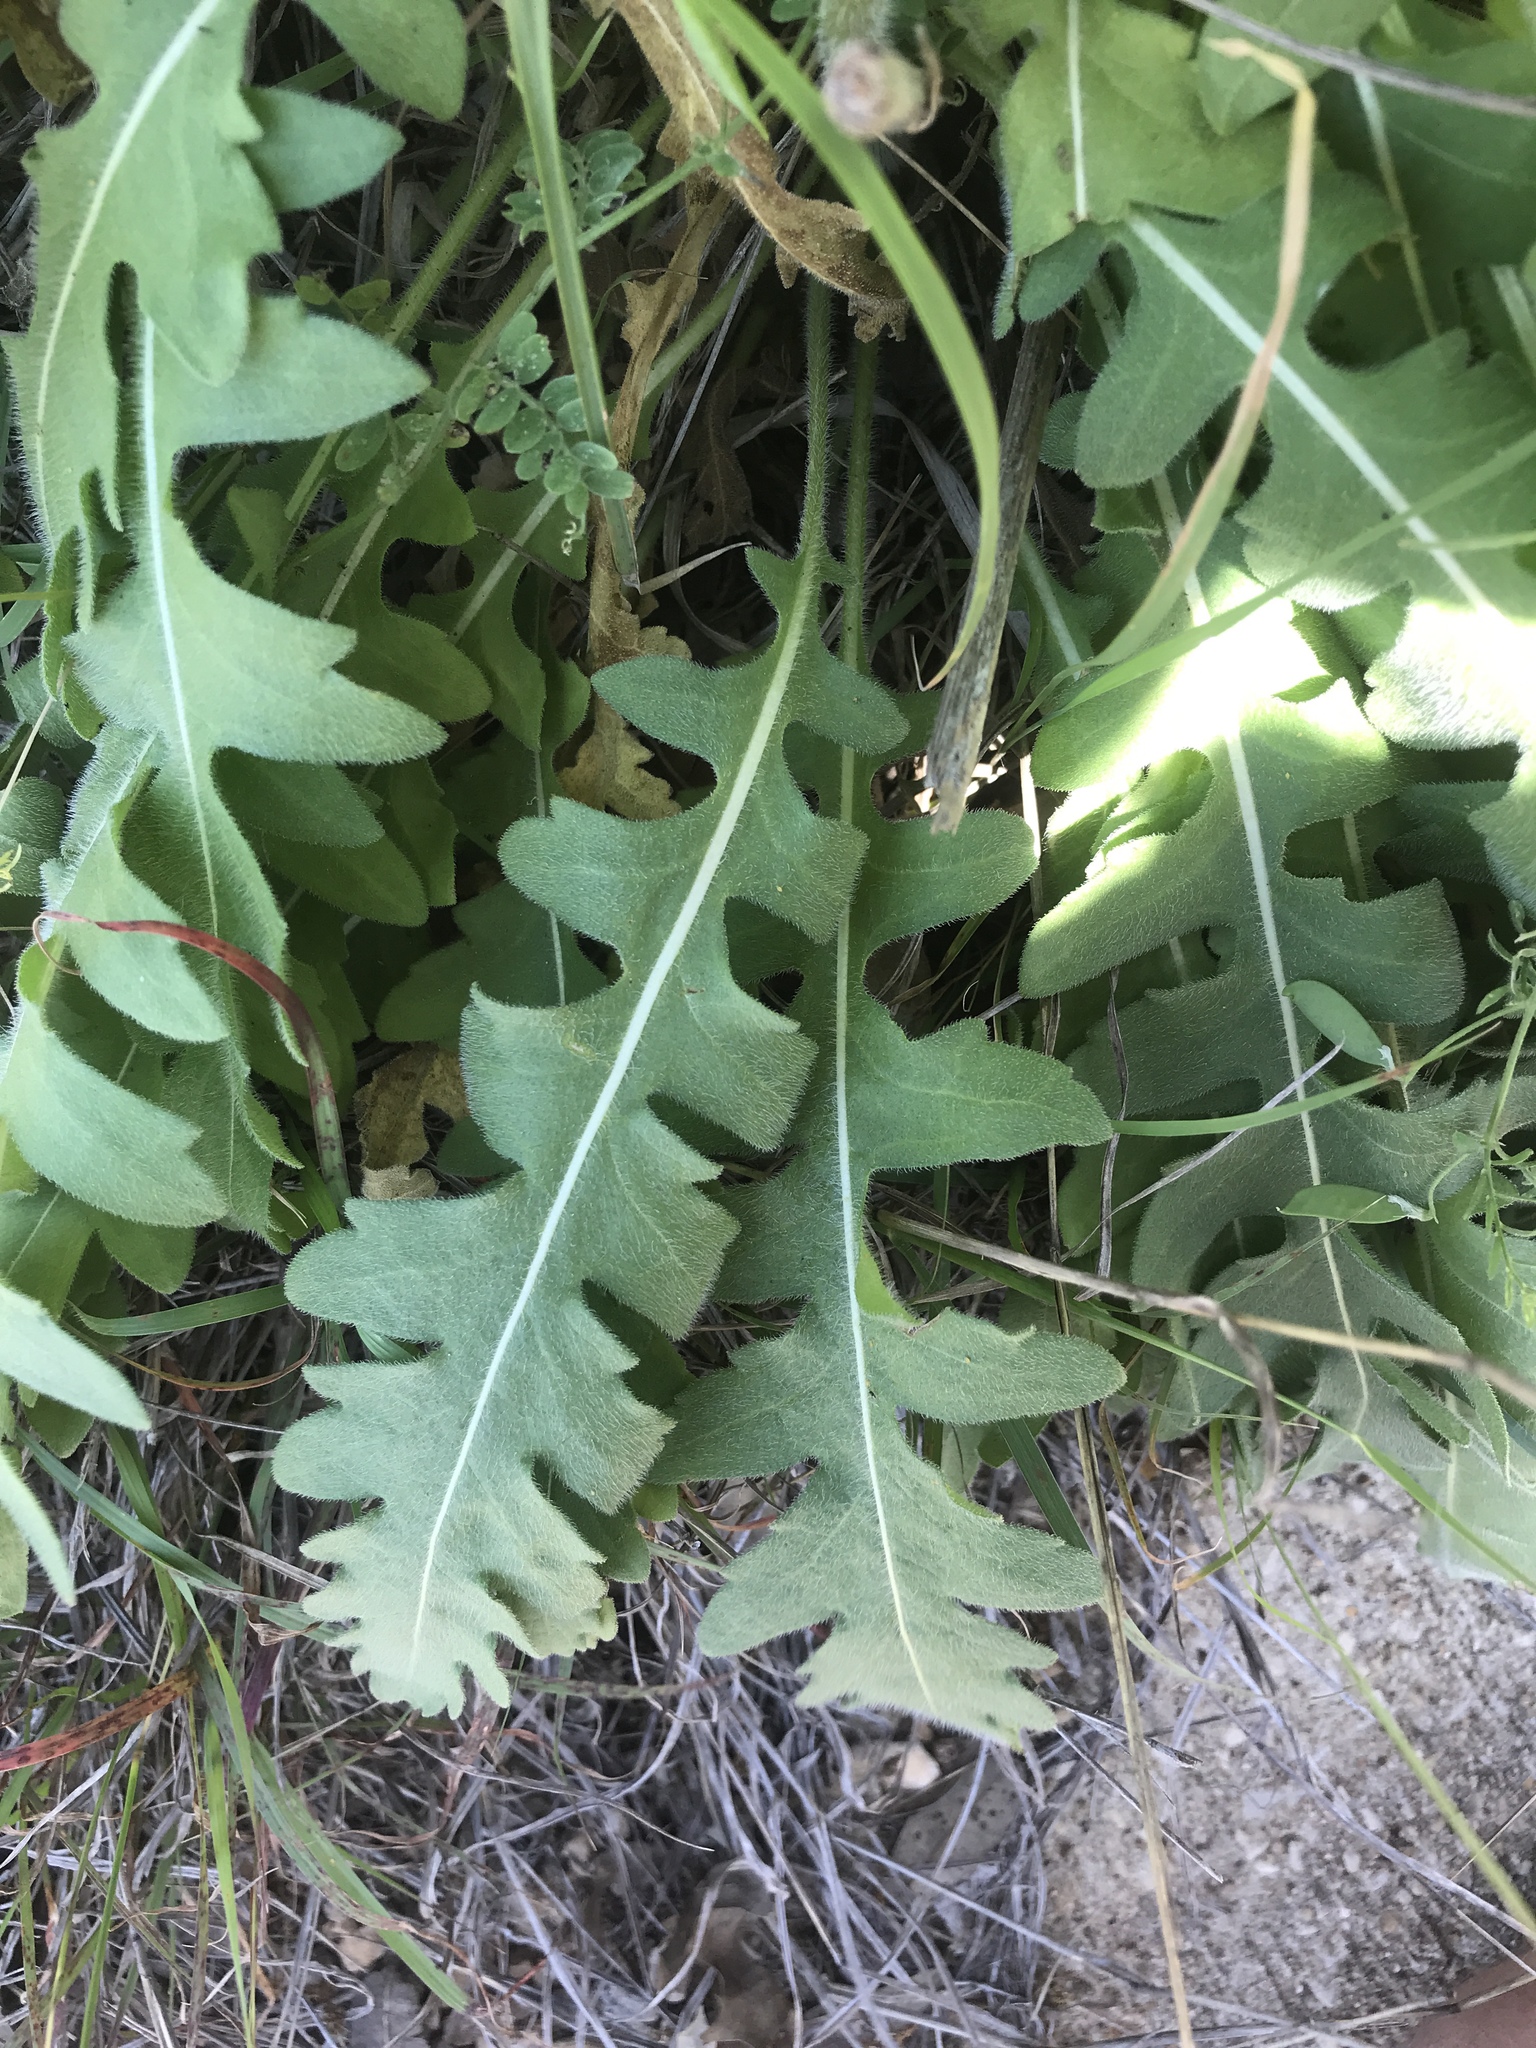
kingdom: Plantae
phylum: Tracheophyta
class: Magnoliopsida
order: Asterales
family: Asteraceae
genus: Engelmannia
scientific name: Engelmannia peristenia
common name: Engelmann's daisy
